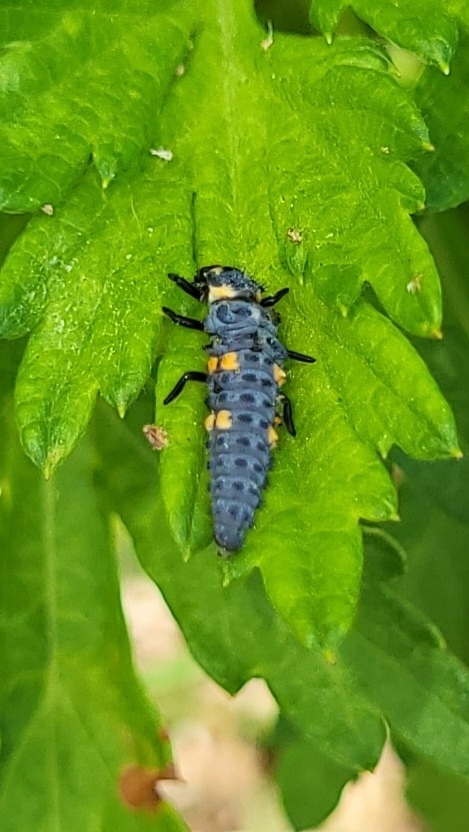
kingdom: Animalia
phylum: Arthropoda
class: Insecta
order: Coleoptera
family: Coccinellidae
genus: Coccinella
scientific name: Coccinella septempunctata
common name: Sevenspotted lady beetle
